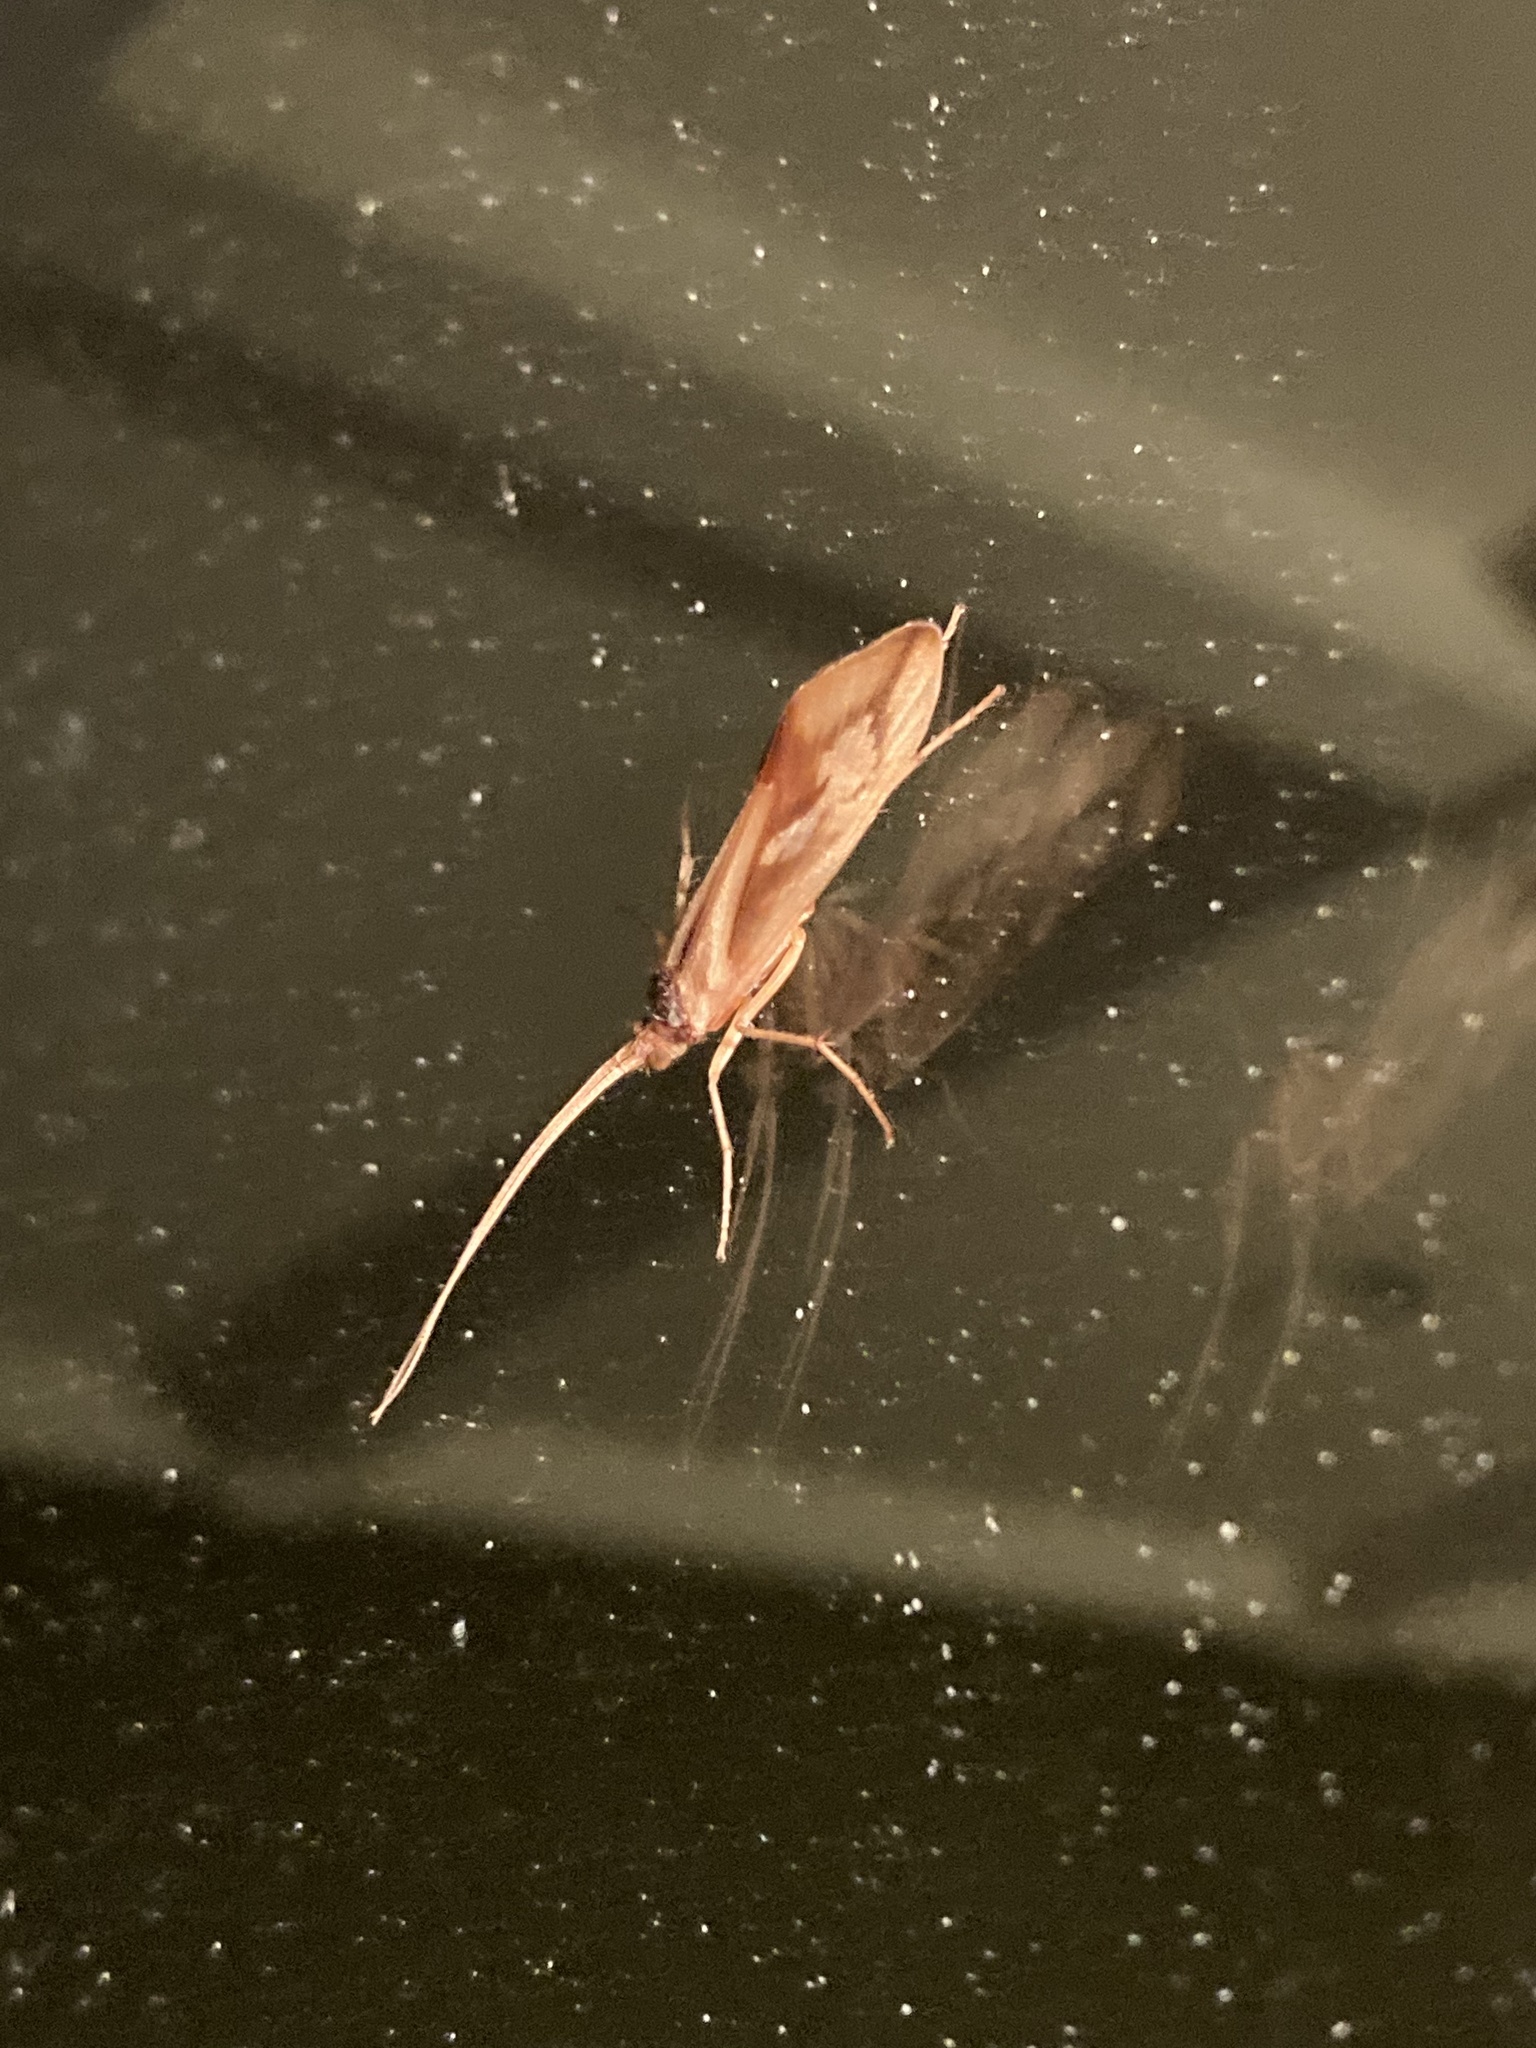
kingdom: Animalia
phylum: Arthropoda
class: Insecta
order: Trichoptera
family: Limnephilidae
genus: Platycentropus
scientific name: Platycentropus radiatus
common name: Chocolate-and-cream sedge
